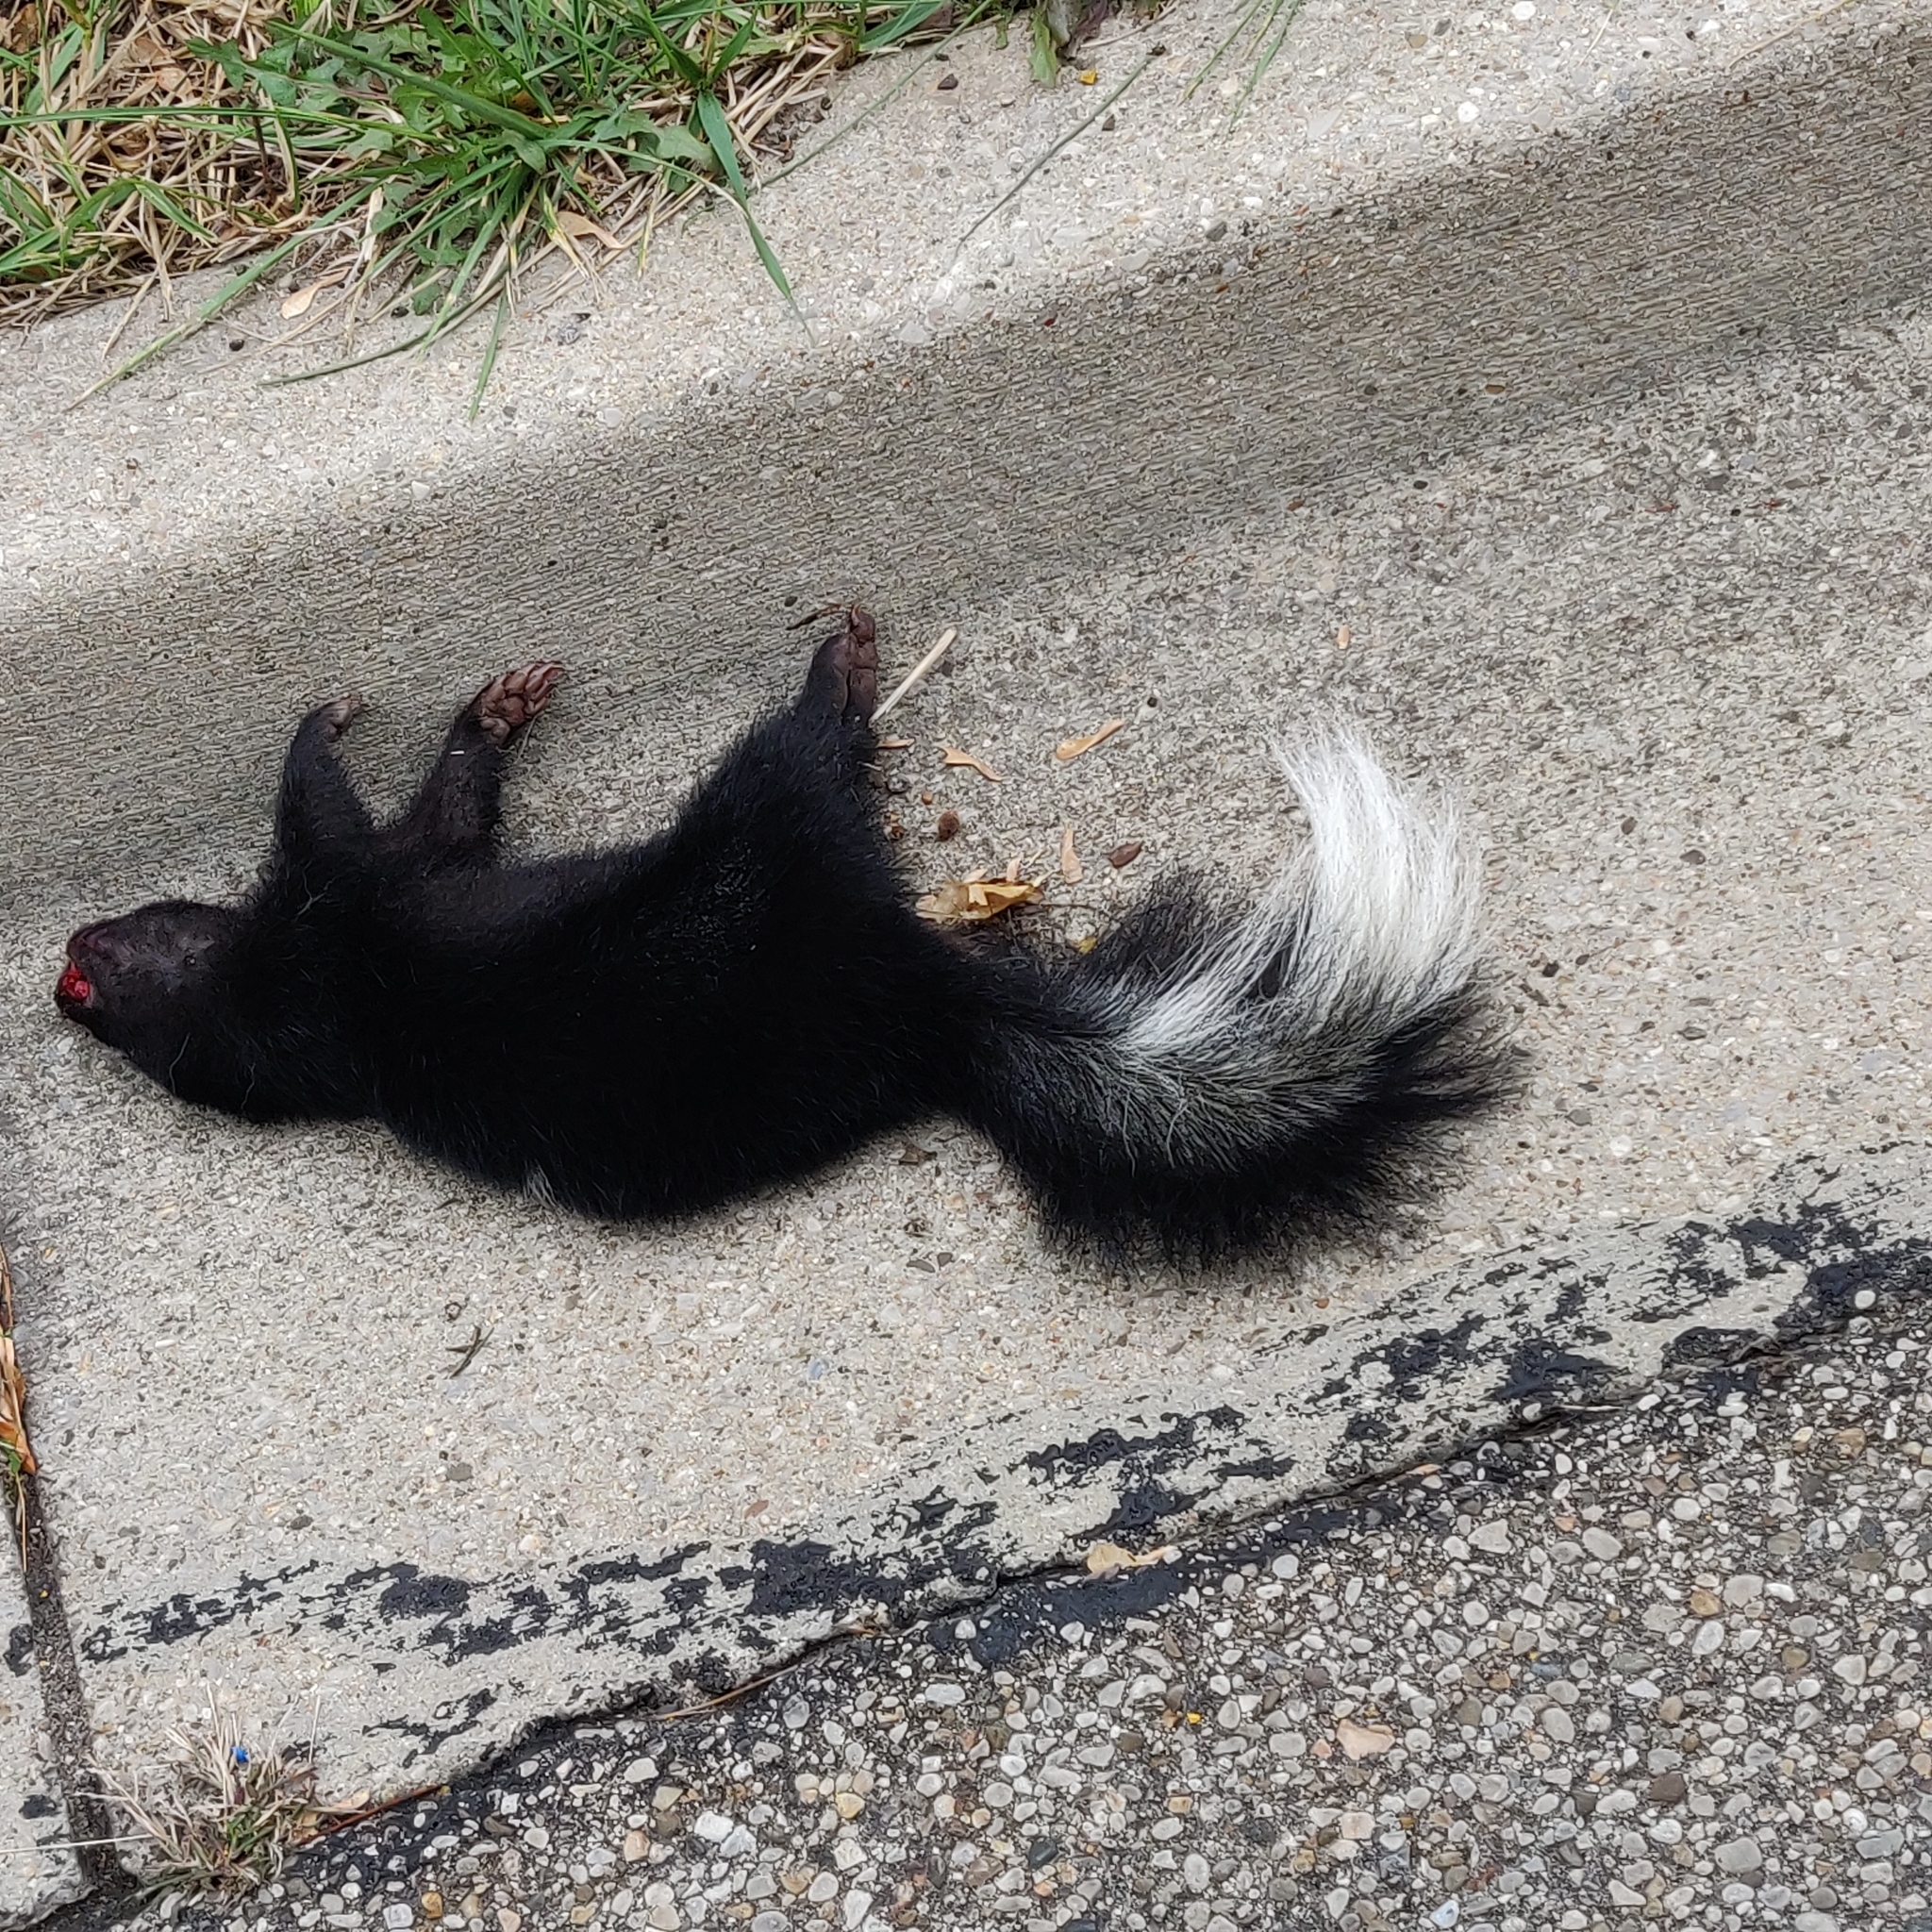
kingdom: Animalia
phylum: Chordata
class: Mammalia
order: Carnivora
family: Mephitidae
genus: Mephitis
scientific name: Mephitis mephitis
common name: Striped skunk
